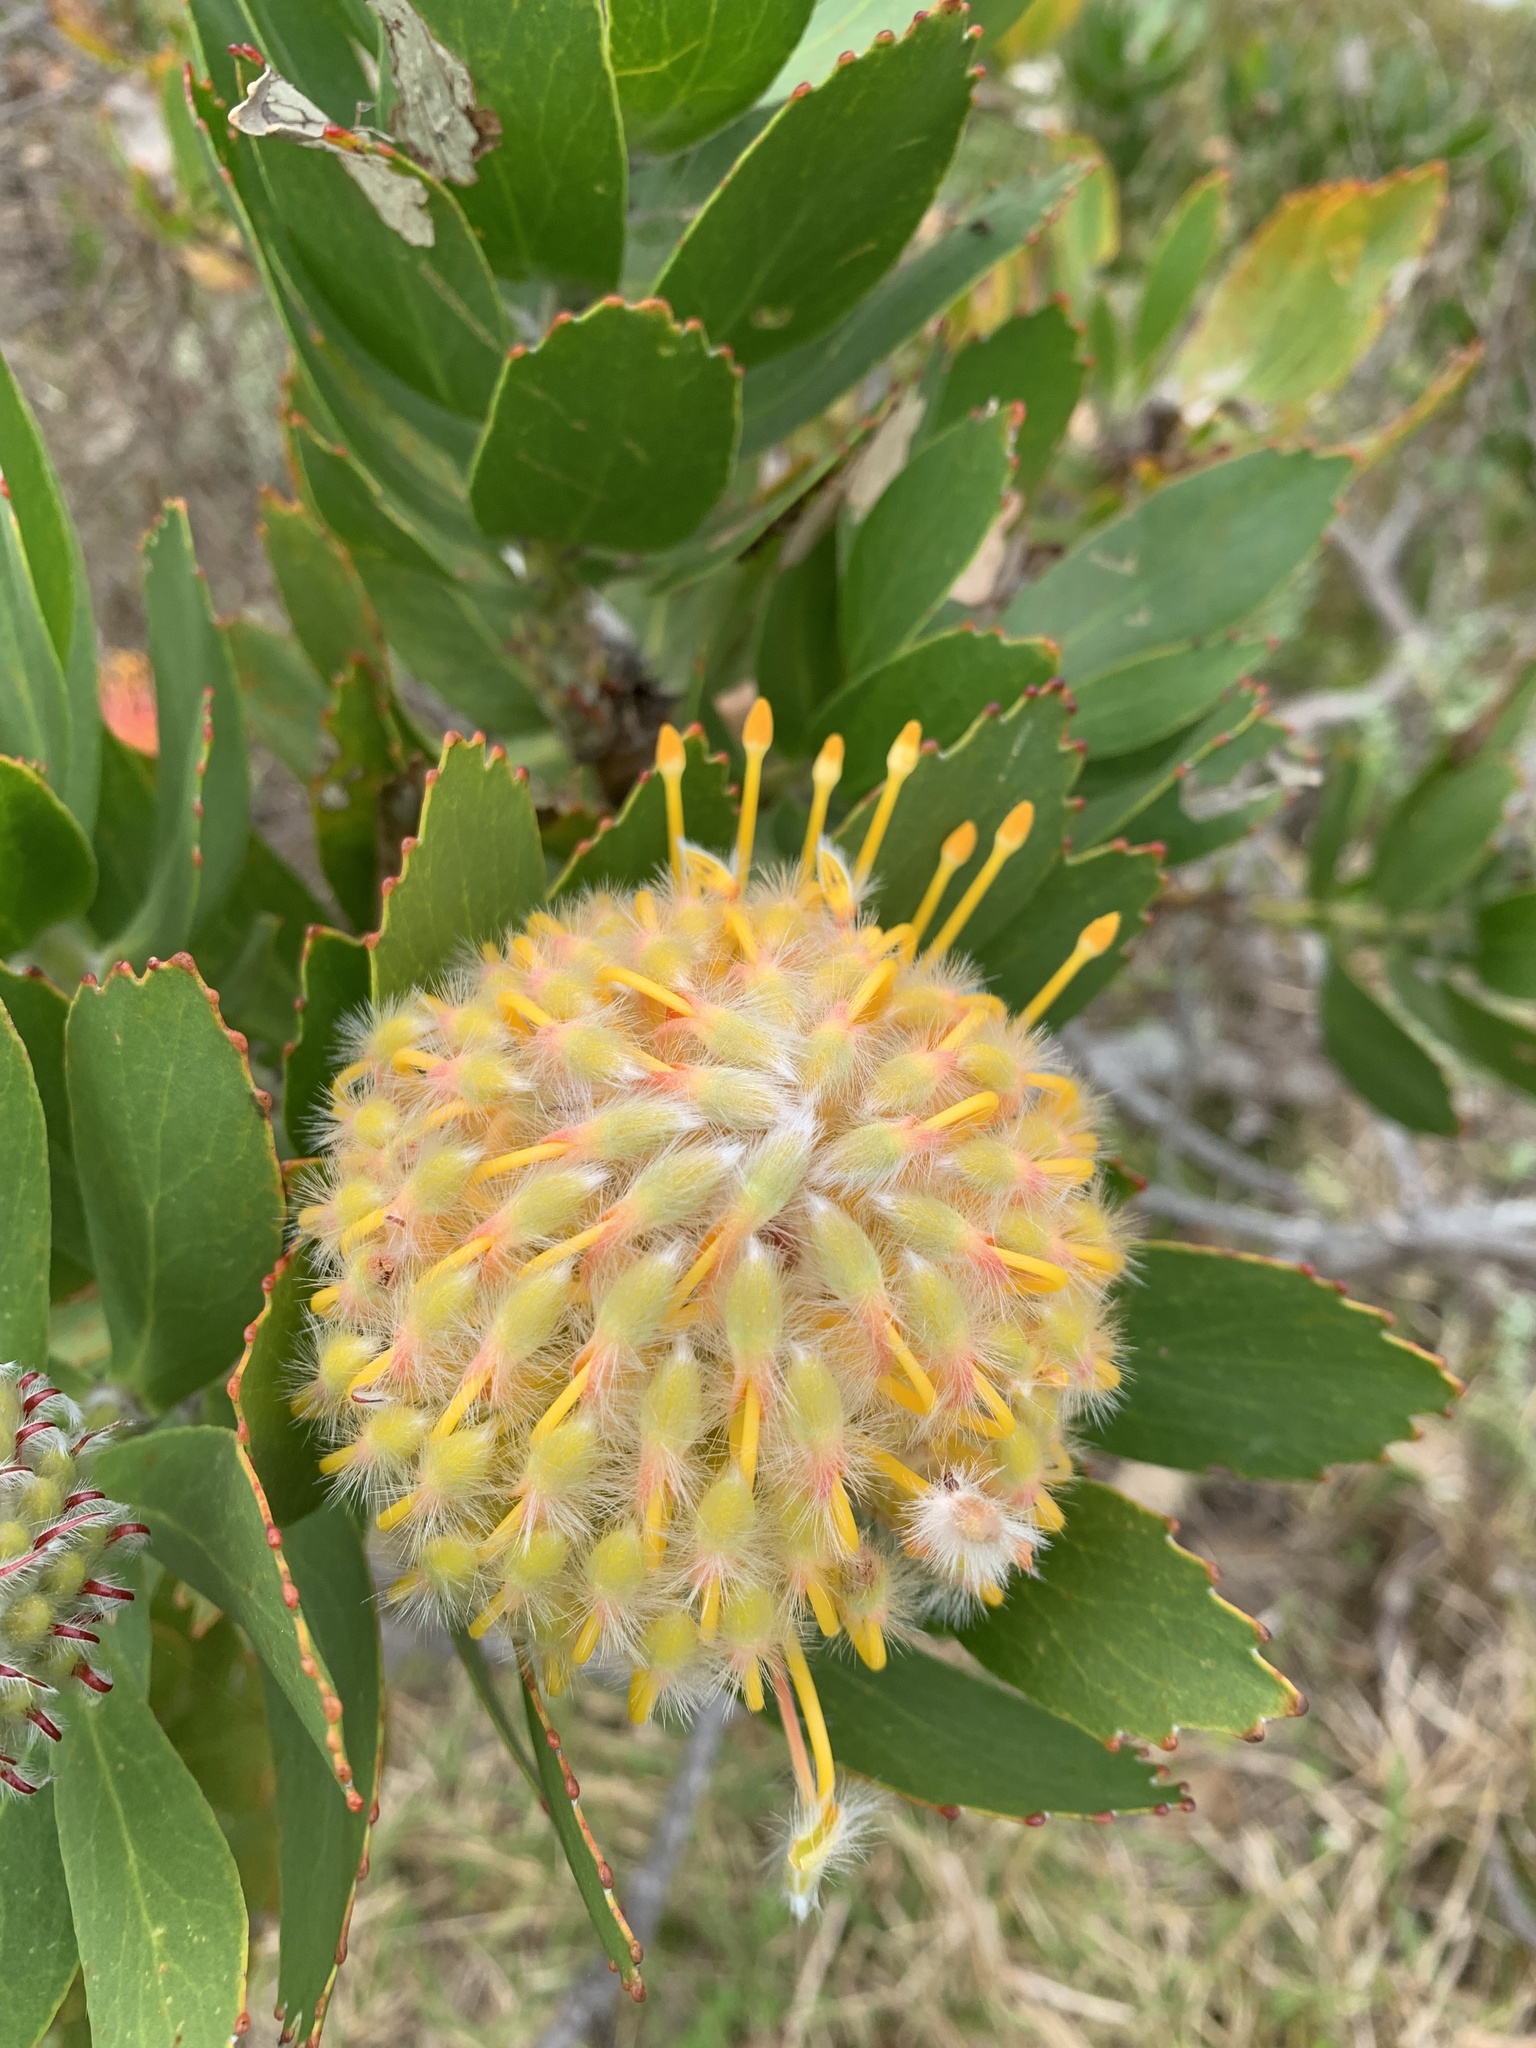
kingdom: Plantae
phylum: Tracheophyta
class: Magnoliopsida
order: Proteales
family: Proteaceae
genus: Leucospermum
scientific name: Leucospermum
